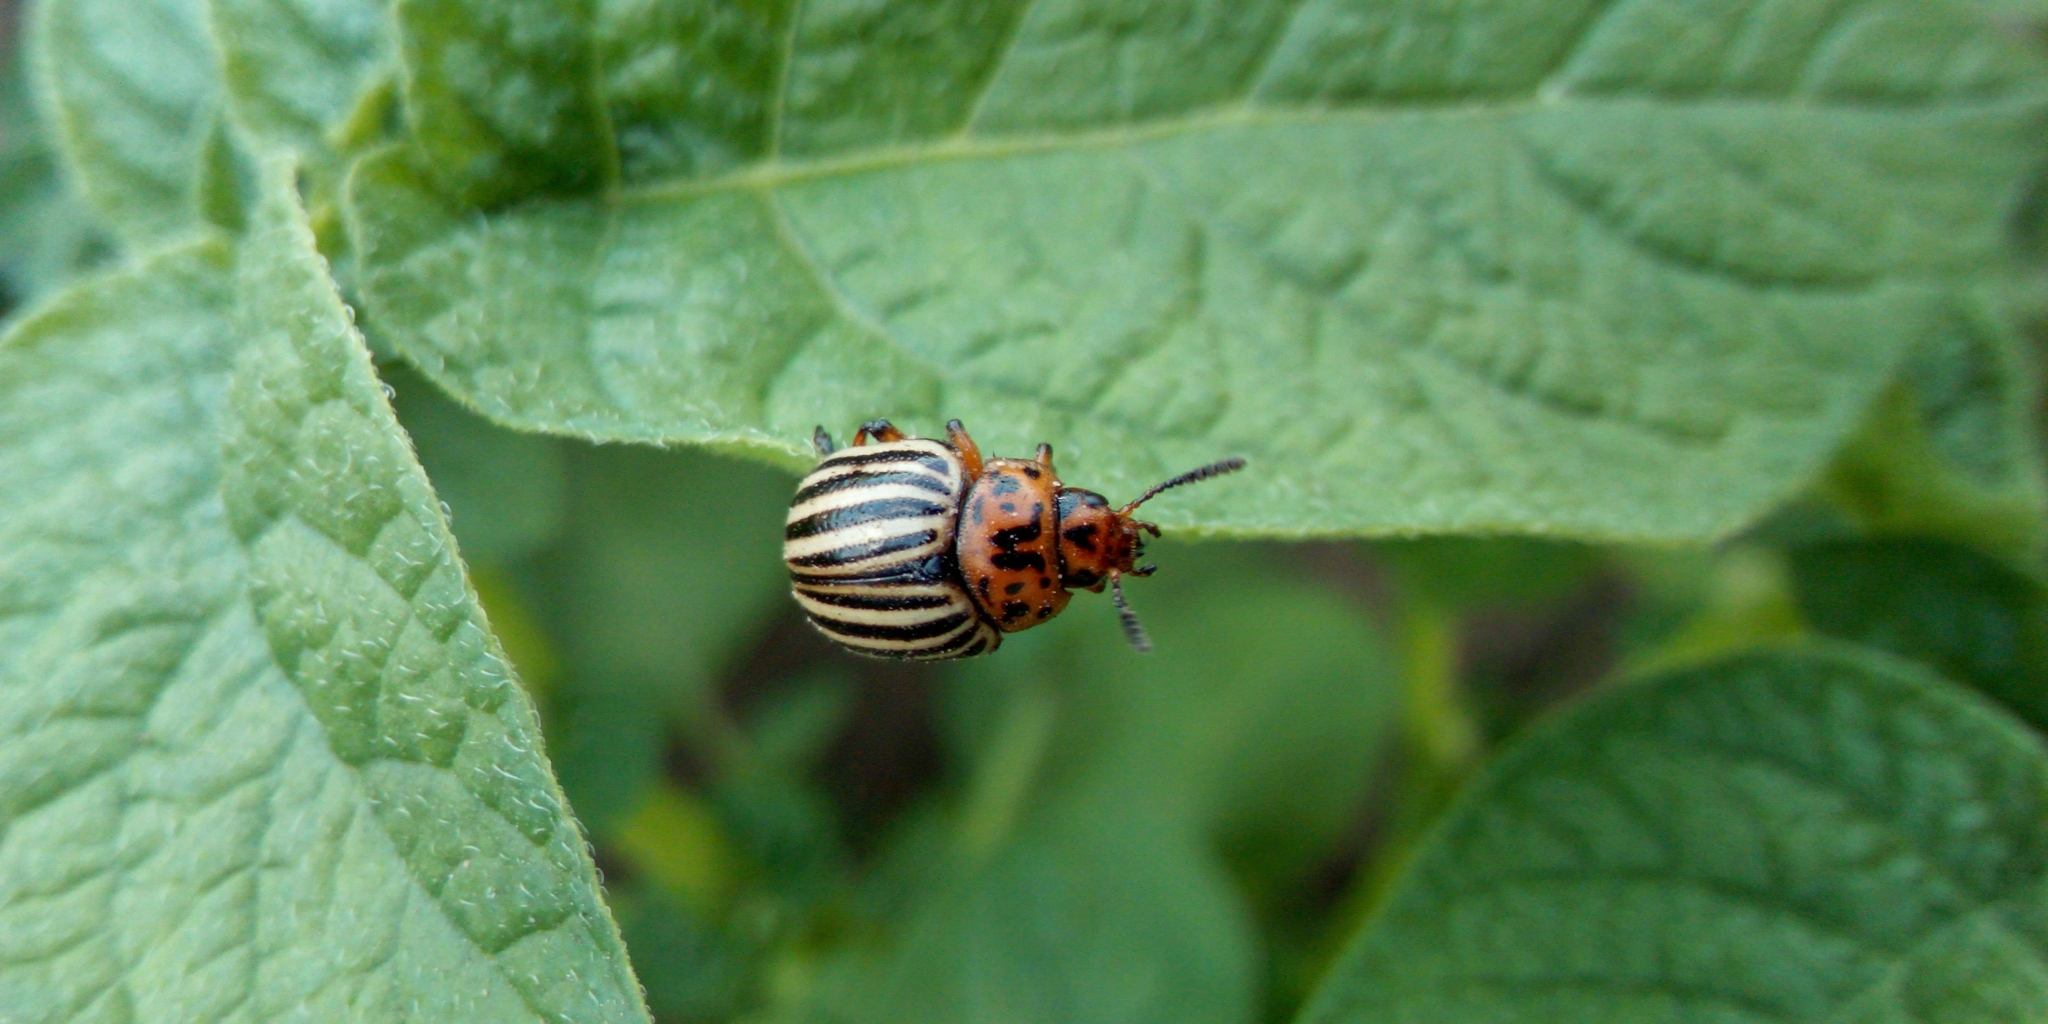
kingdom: Animalia
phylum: Arthropoda
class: Insecta
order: Coleoptera
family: Chrysomelidae
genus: Leptinotarsa
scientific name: Leptinotarsa decemlineata
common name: Colorado potato beetle
